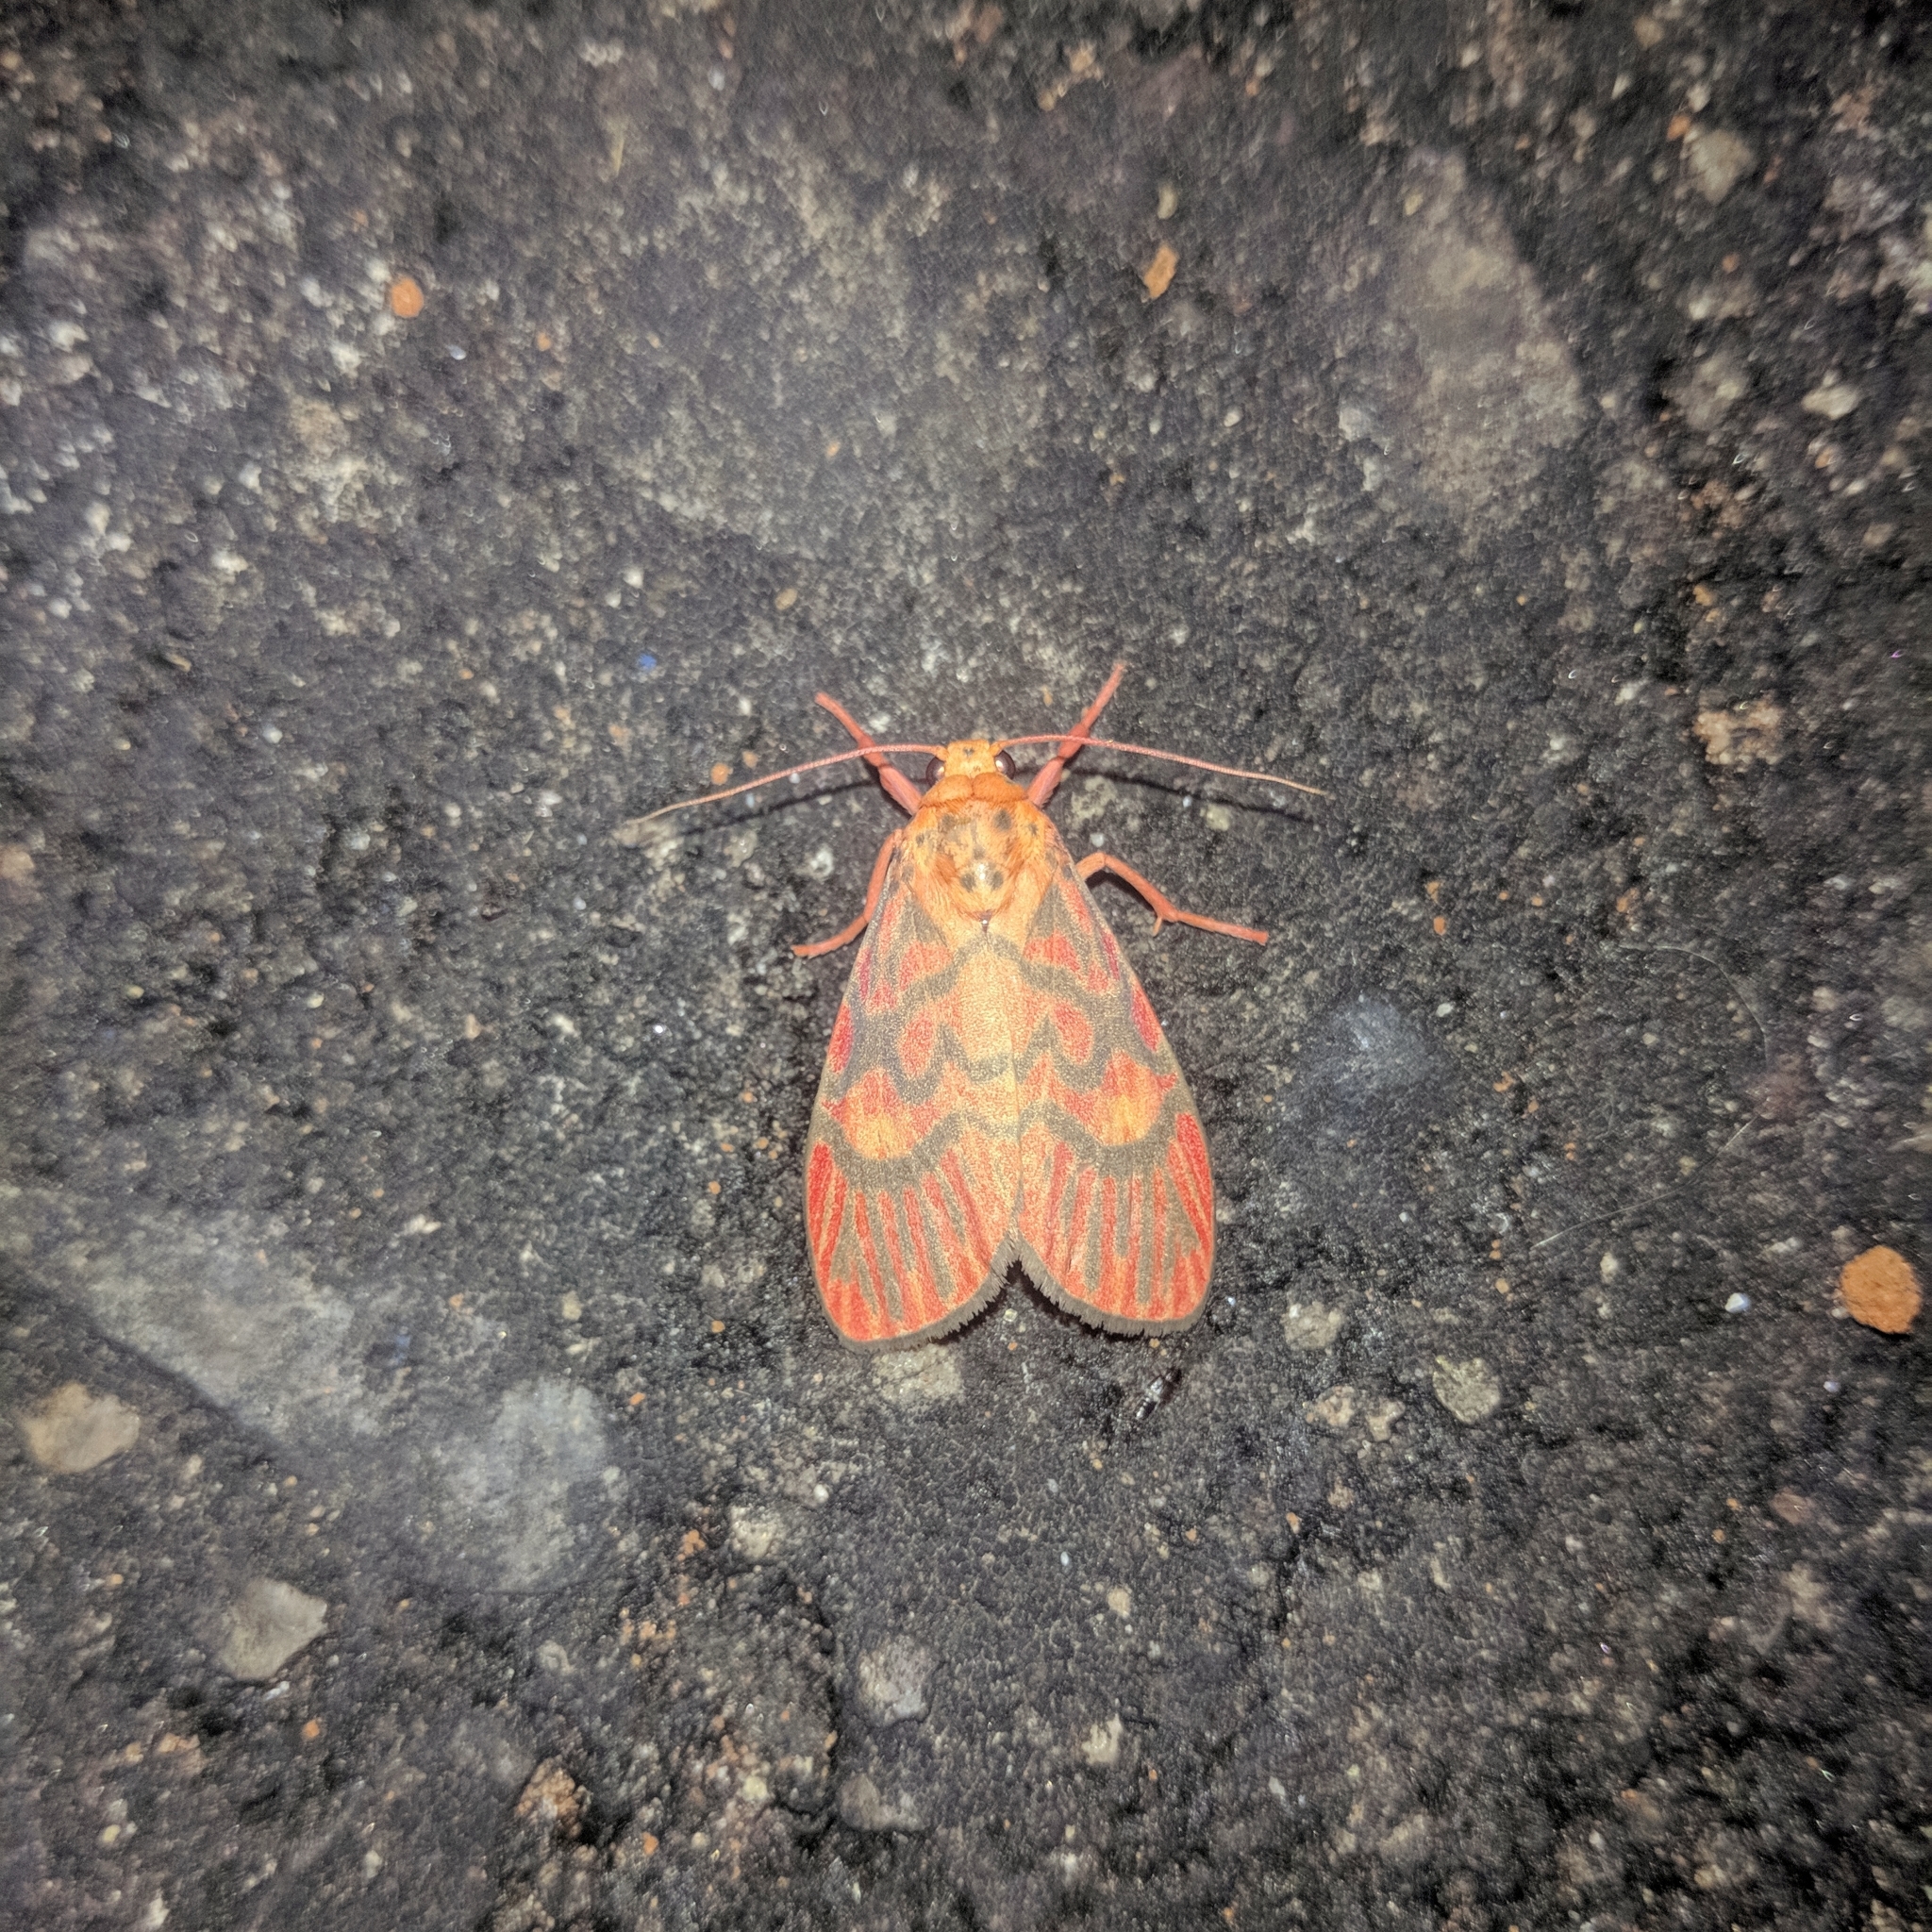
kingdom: Animalia
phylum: Arthropoda
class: Insecta
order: Lepidoptera
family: Erebidae
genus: Ammatho
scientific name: Ammatho cuneonotatus
